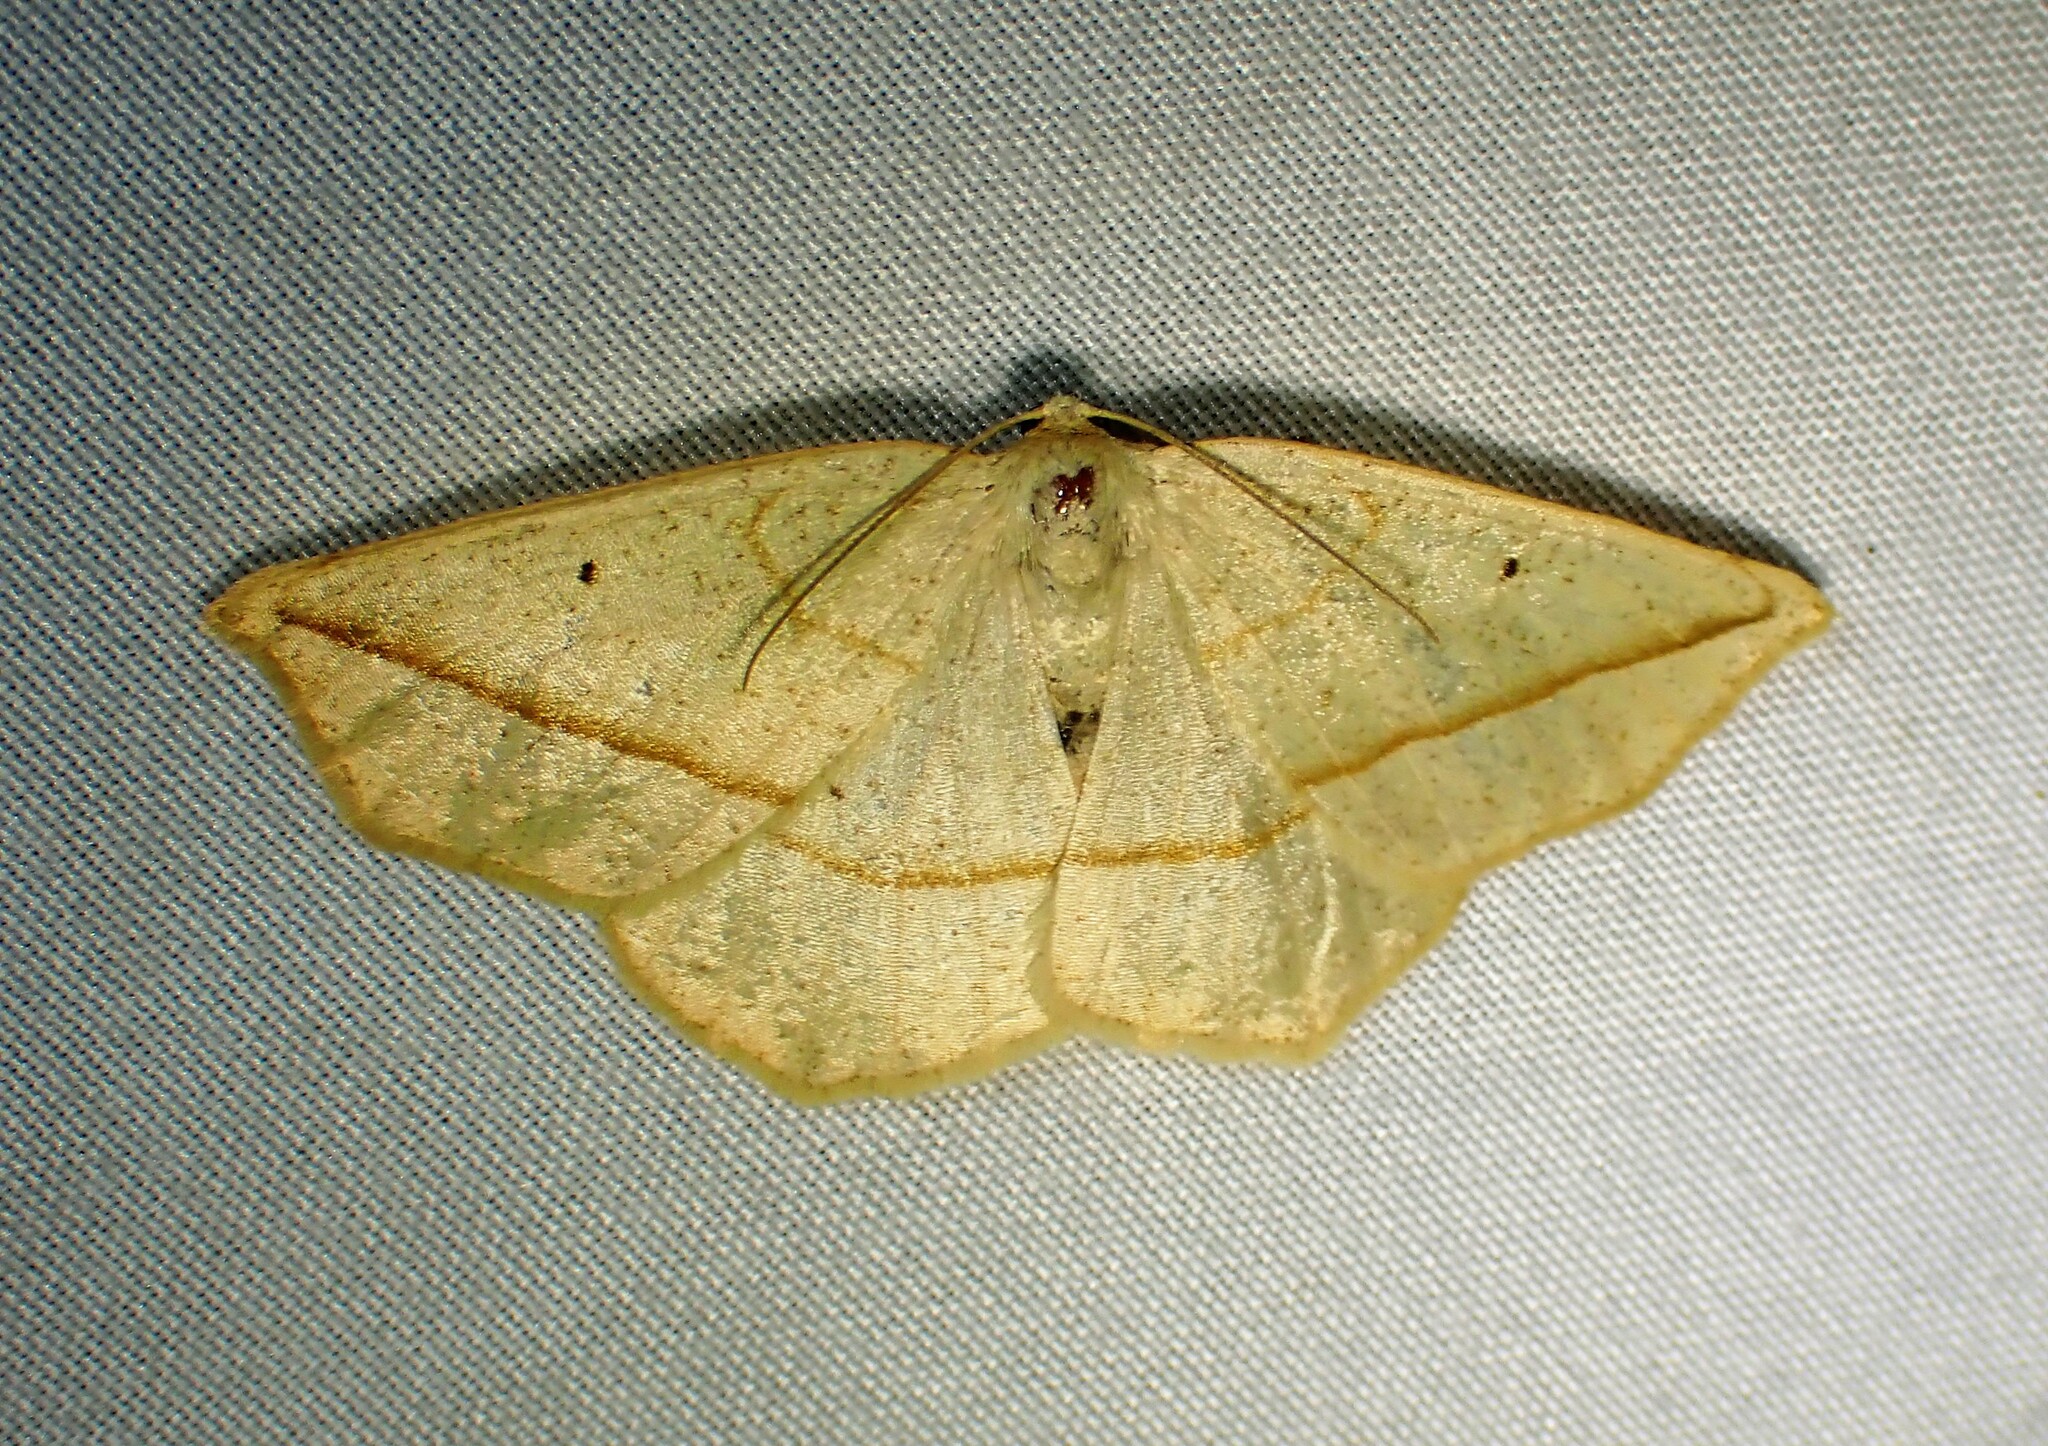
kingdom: Animalia
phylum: Arthropoda
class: Insecta
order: Lepidoptera
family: Geometridae
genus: Eusarca
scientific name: Eusarca confusaria
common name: Confused eusarca
